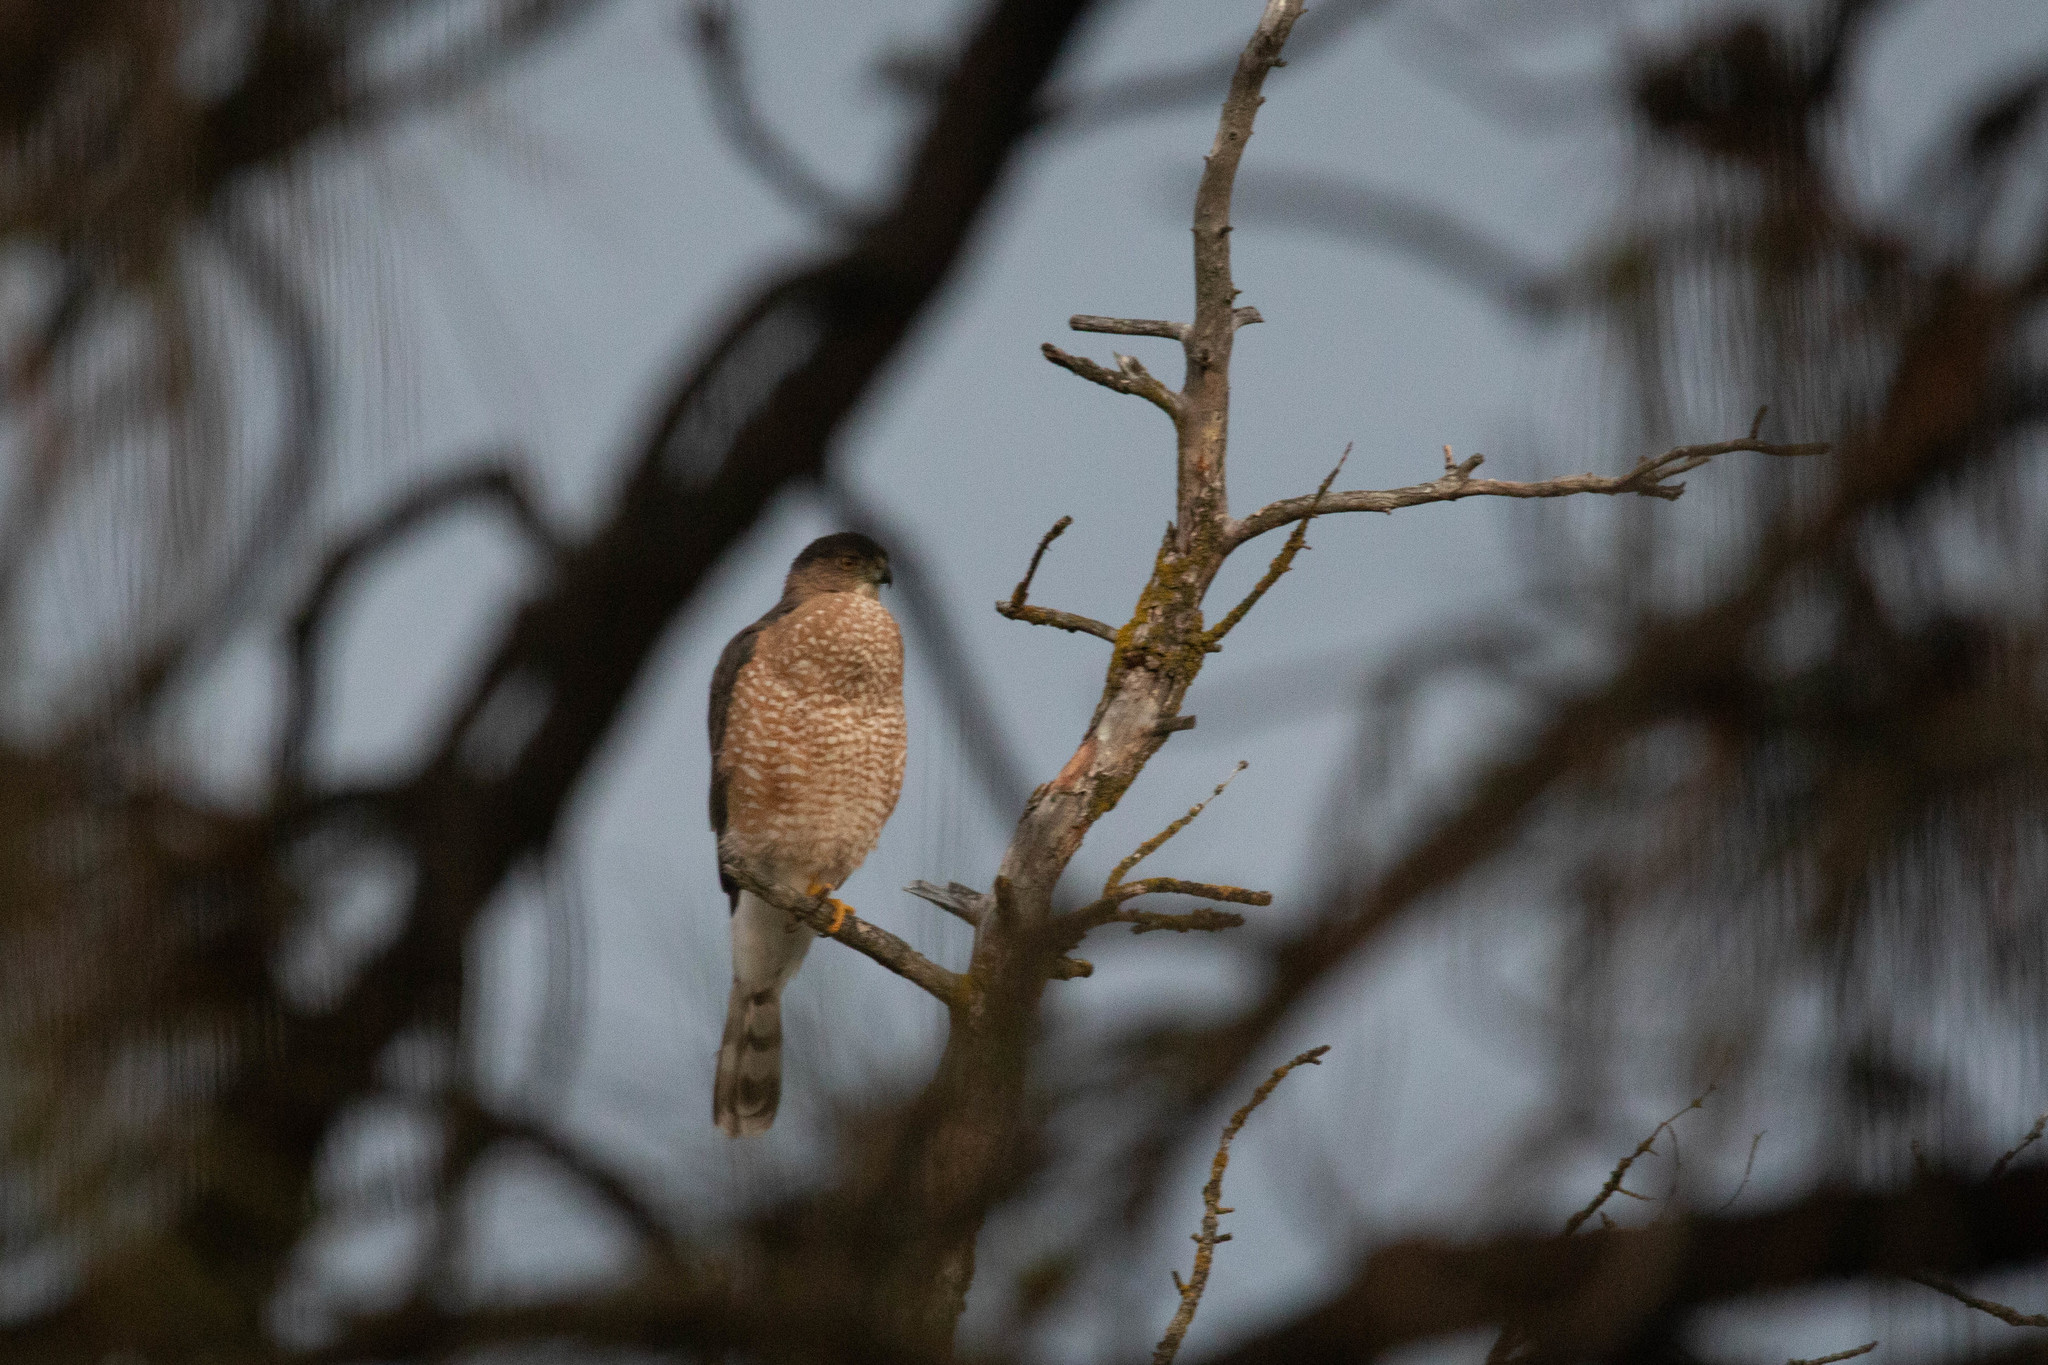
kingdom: Animalia
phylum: Chordata
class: Aves
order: Accipitriformes
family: Accipitridae
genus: Accipiter
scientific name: Accipiter cooperii
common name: Cooper's hawk
